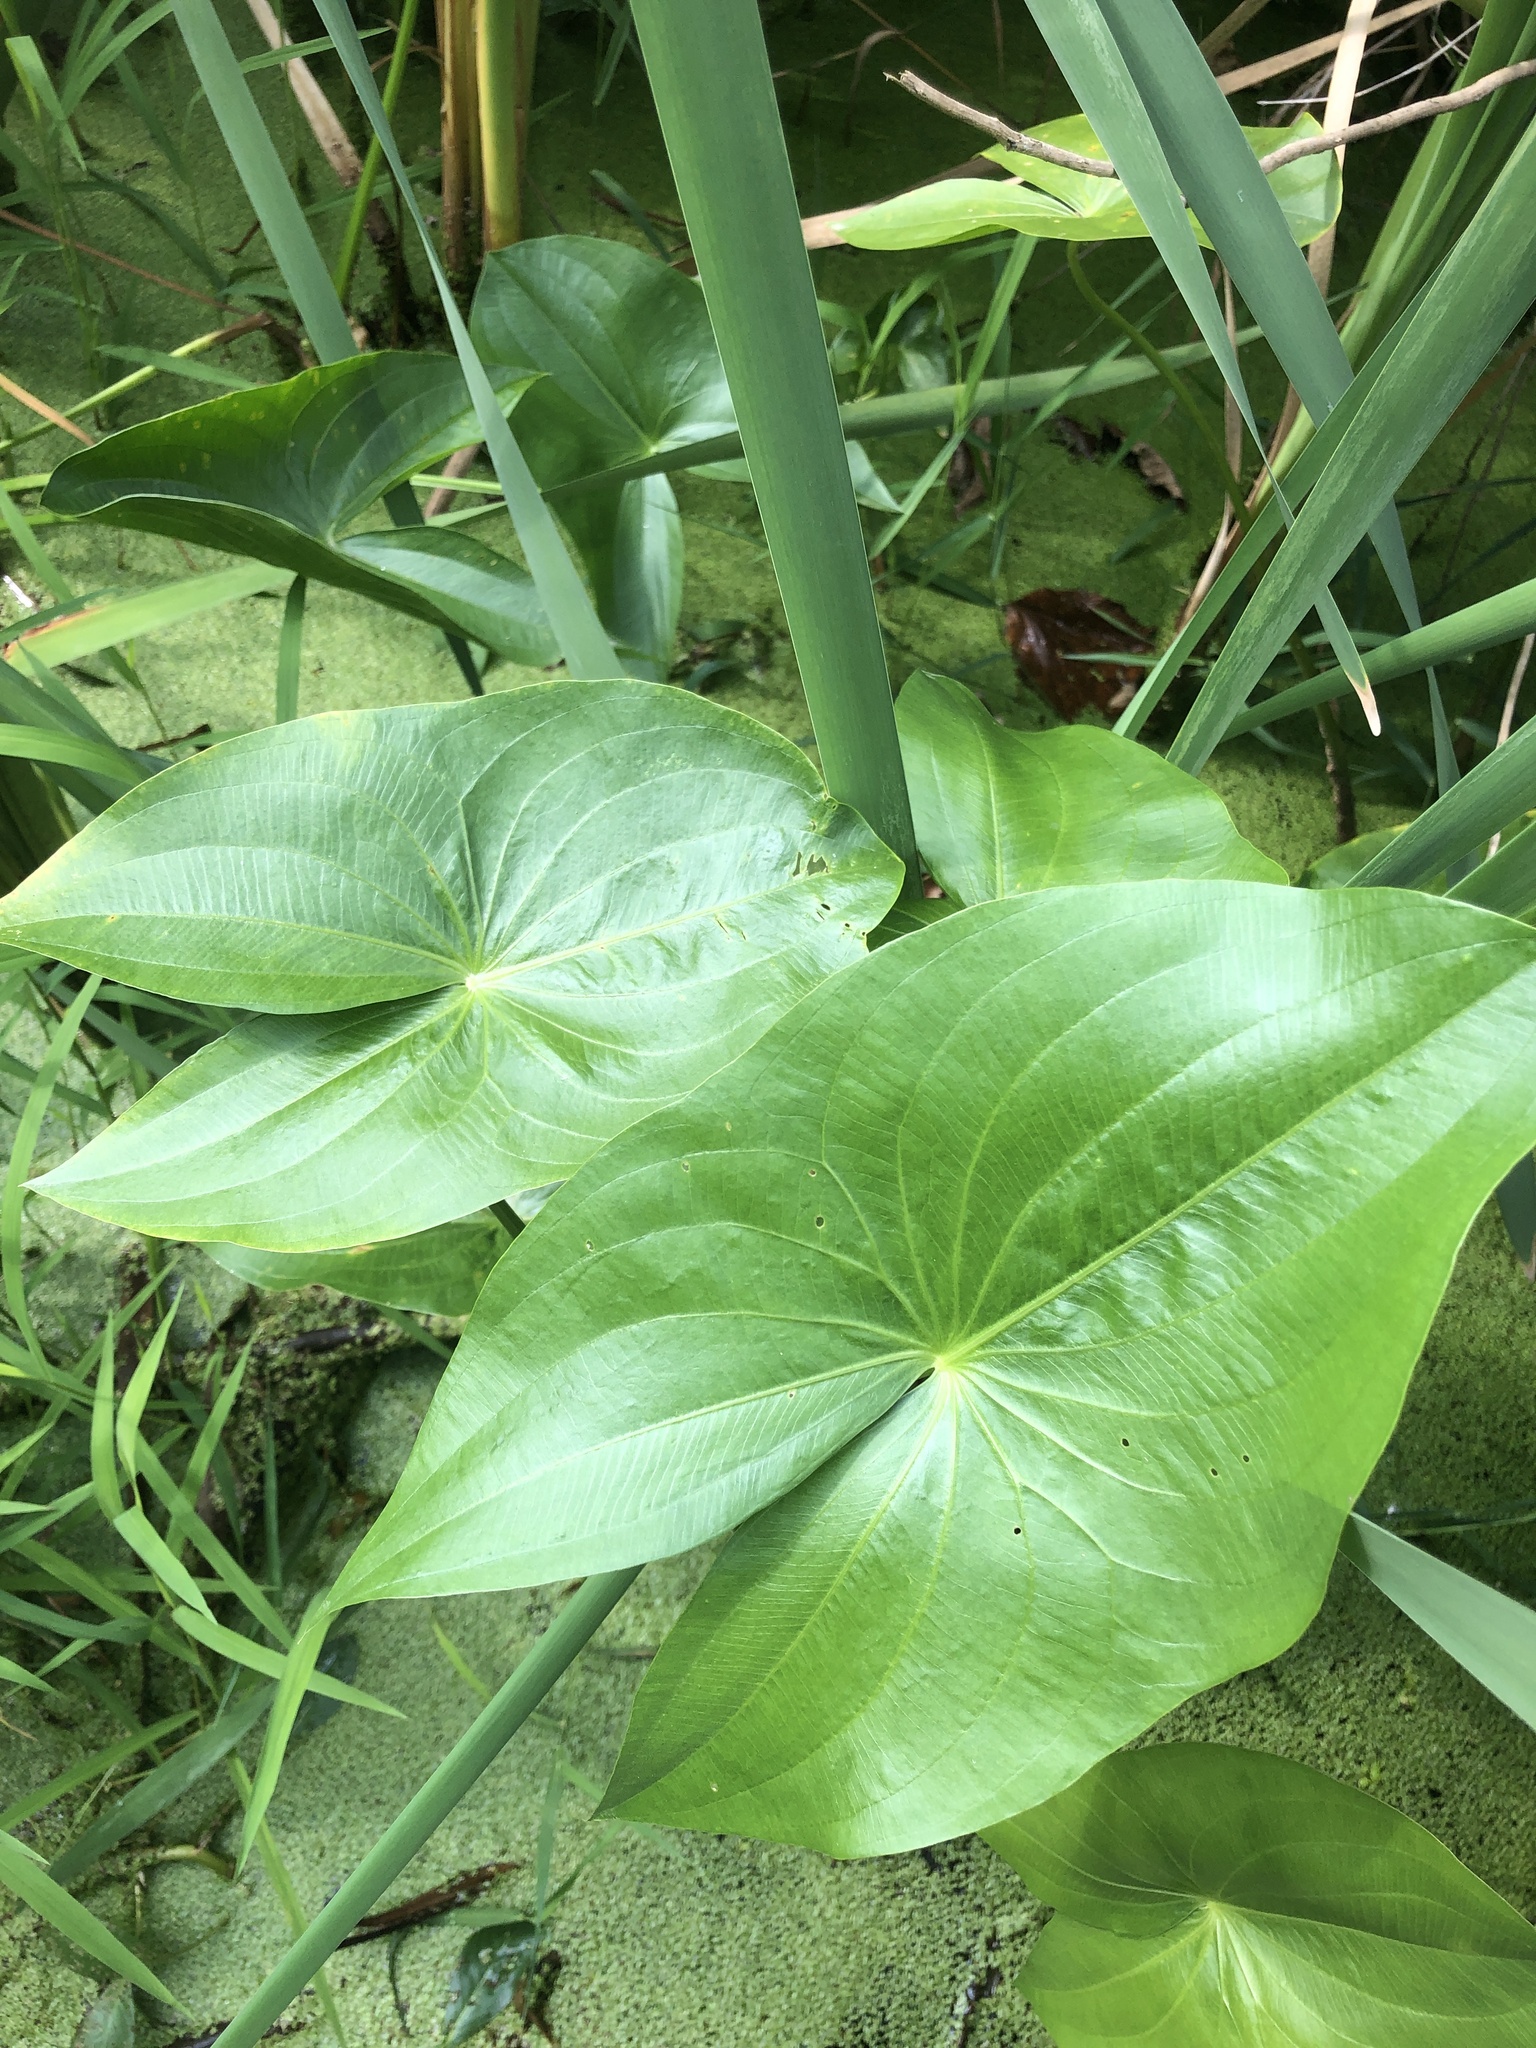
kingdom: Plantae
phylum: Tracheophyta
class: Liliopsida
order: Alismatales
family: Alismataceae
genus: Sagittaria
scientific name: Sagittaria latifolia
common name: Duck-potato
